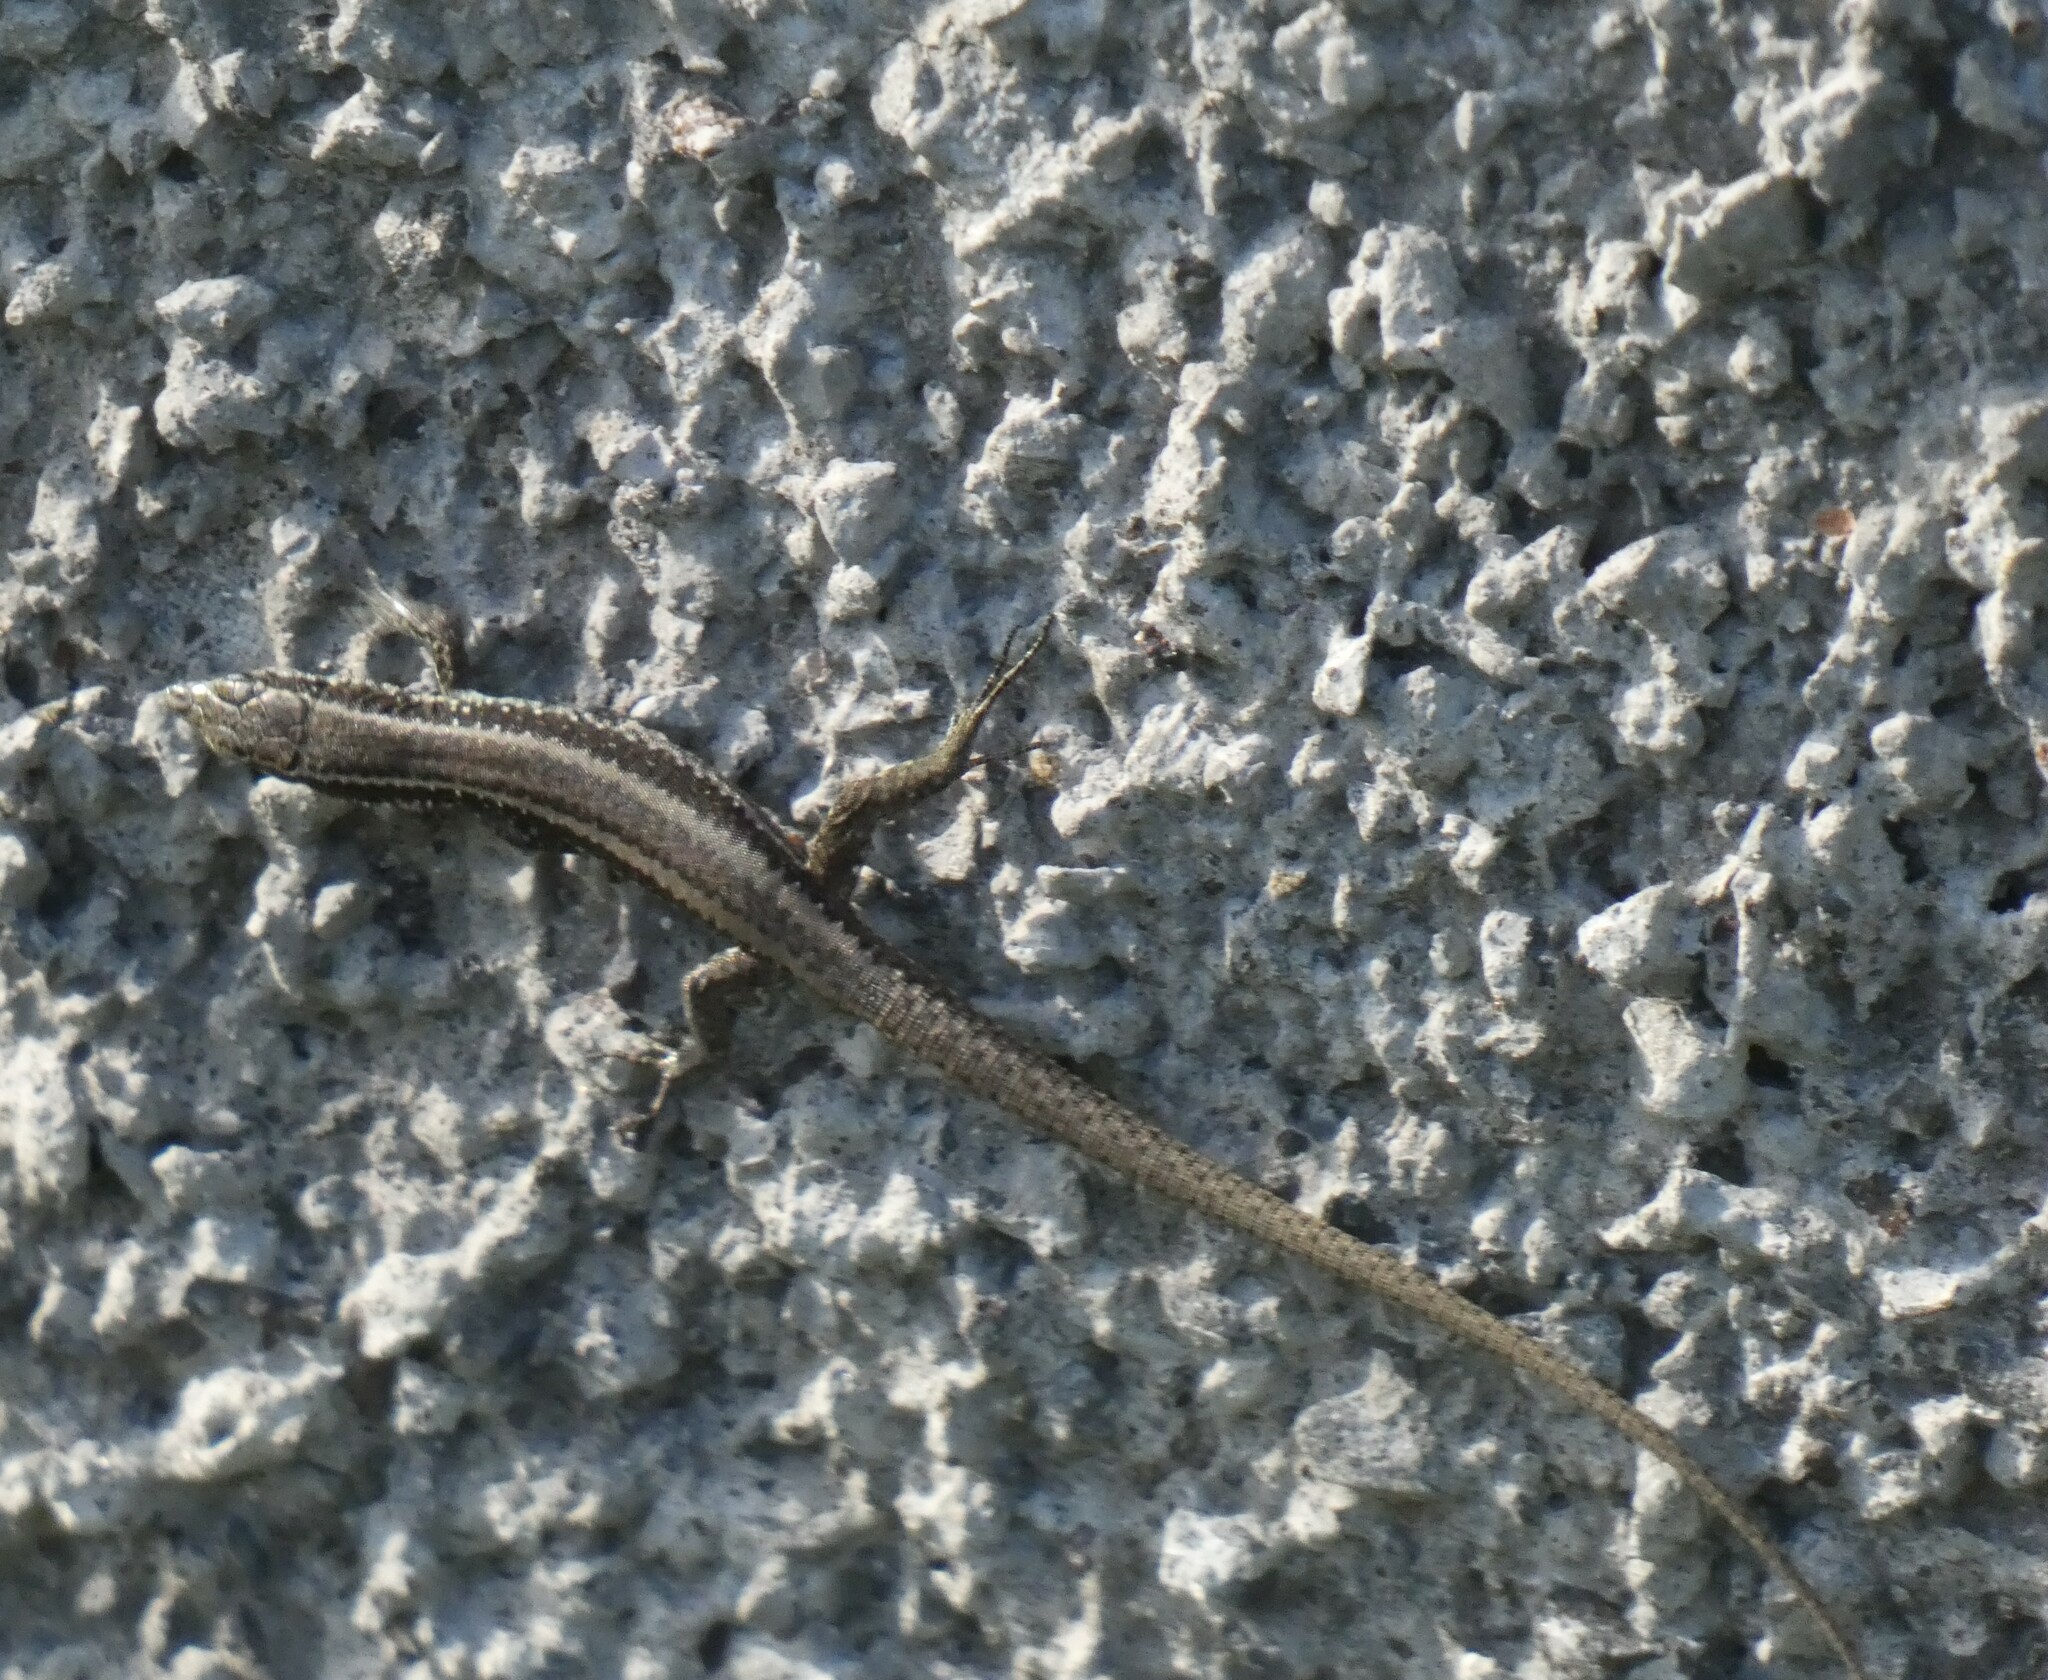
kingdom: Animalia
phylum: Chordata
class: Squamata
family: Lacertidae
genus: Teira
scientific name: Teira dugesii
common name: Madeira lizard
